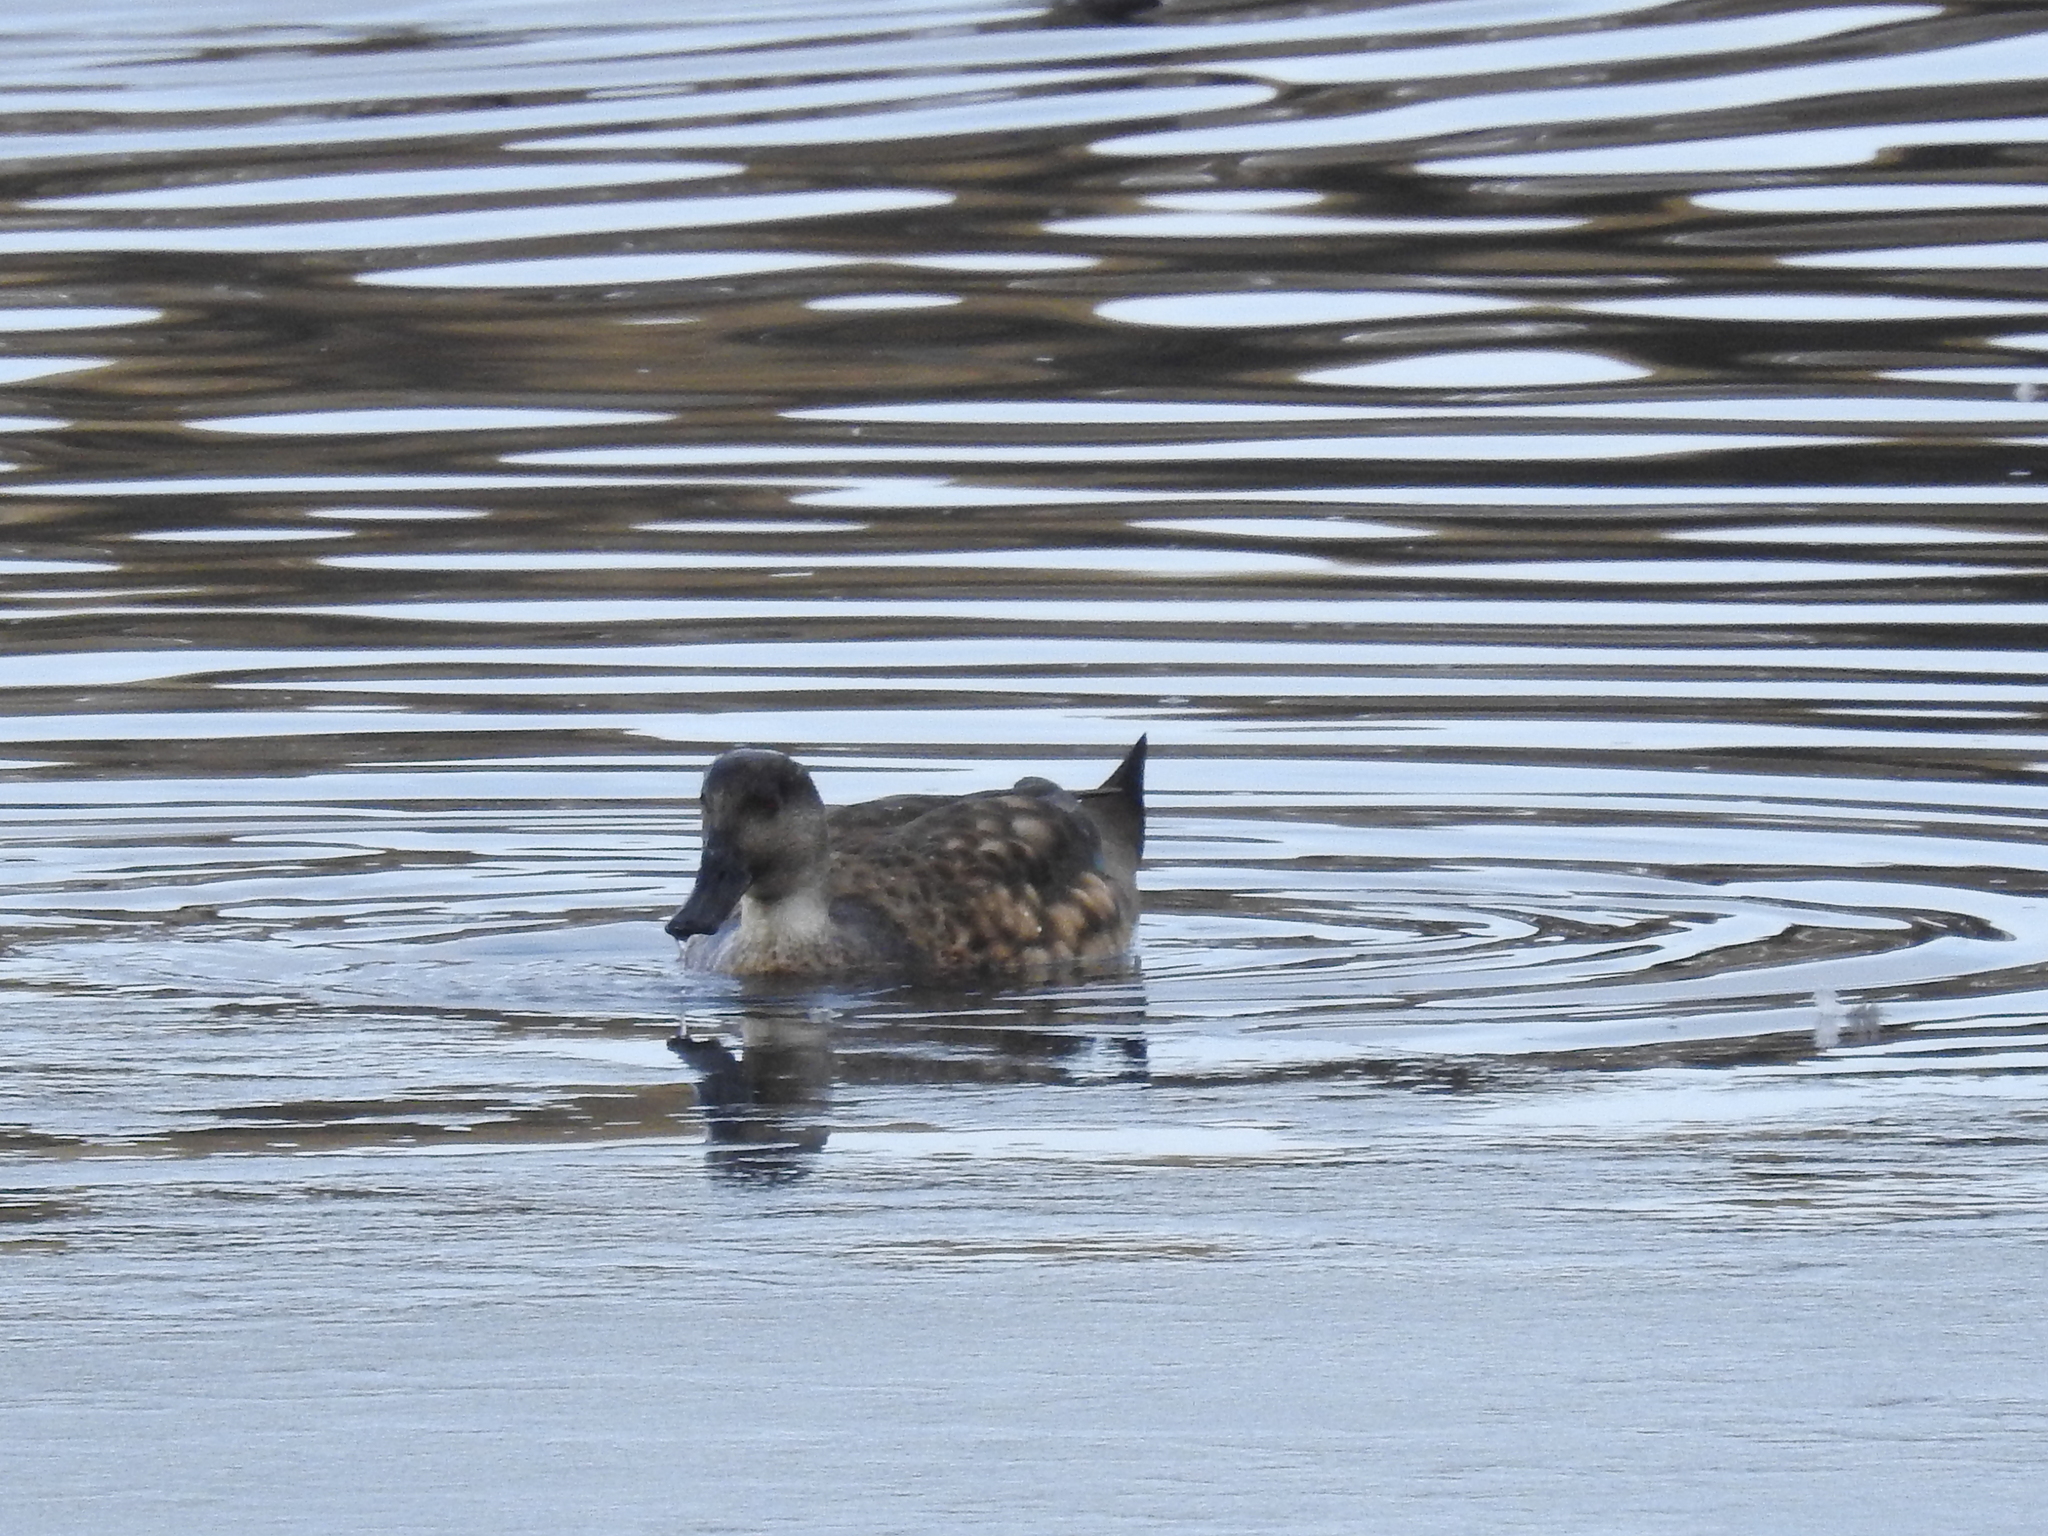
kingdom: Animalia
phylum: Chordata
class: Aves
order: Anseriformes
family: Anatidae
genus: Lophonetta
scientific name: Lophonetta specularioides
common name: Crested duck
